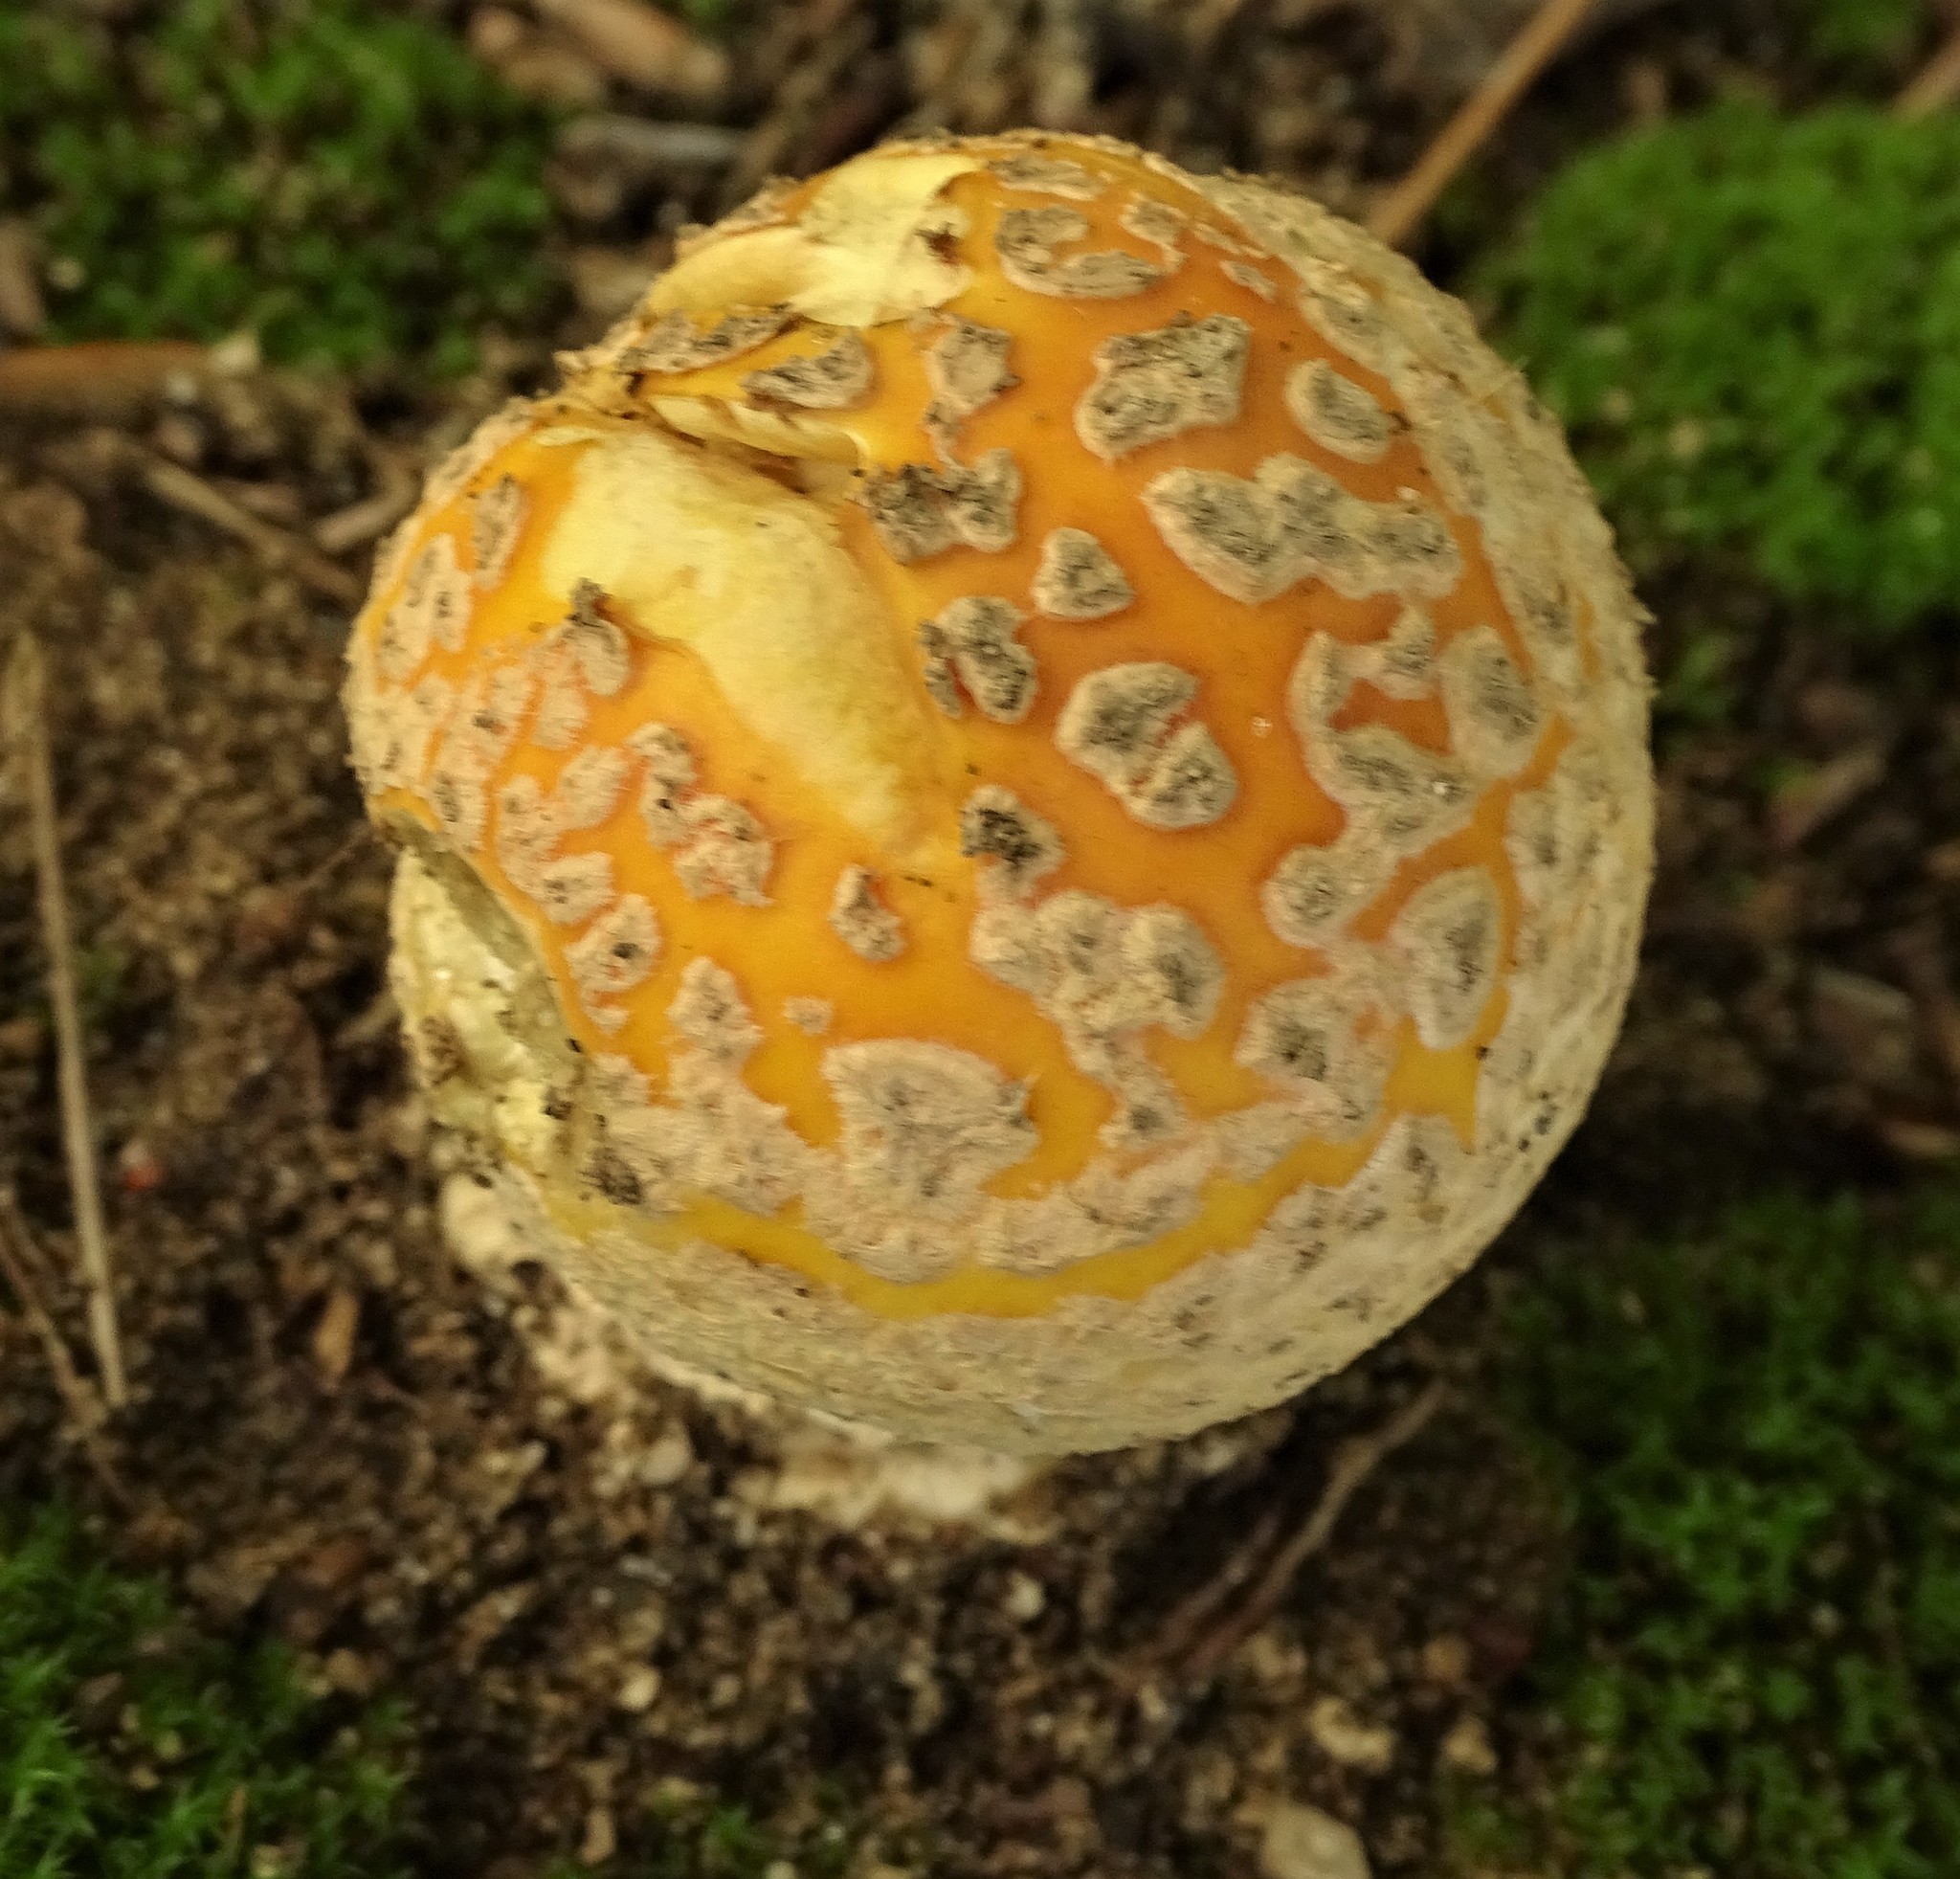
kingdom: Fungi
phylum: Basidiomycota
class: Agaricomycetes
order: Agaricales
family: Amanitaceae
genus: Amanita
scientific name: Amanita muscaria
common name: Fly agaric
